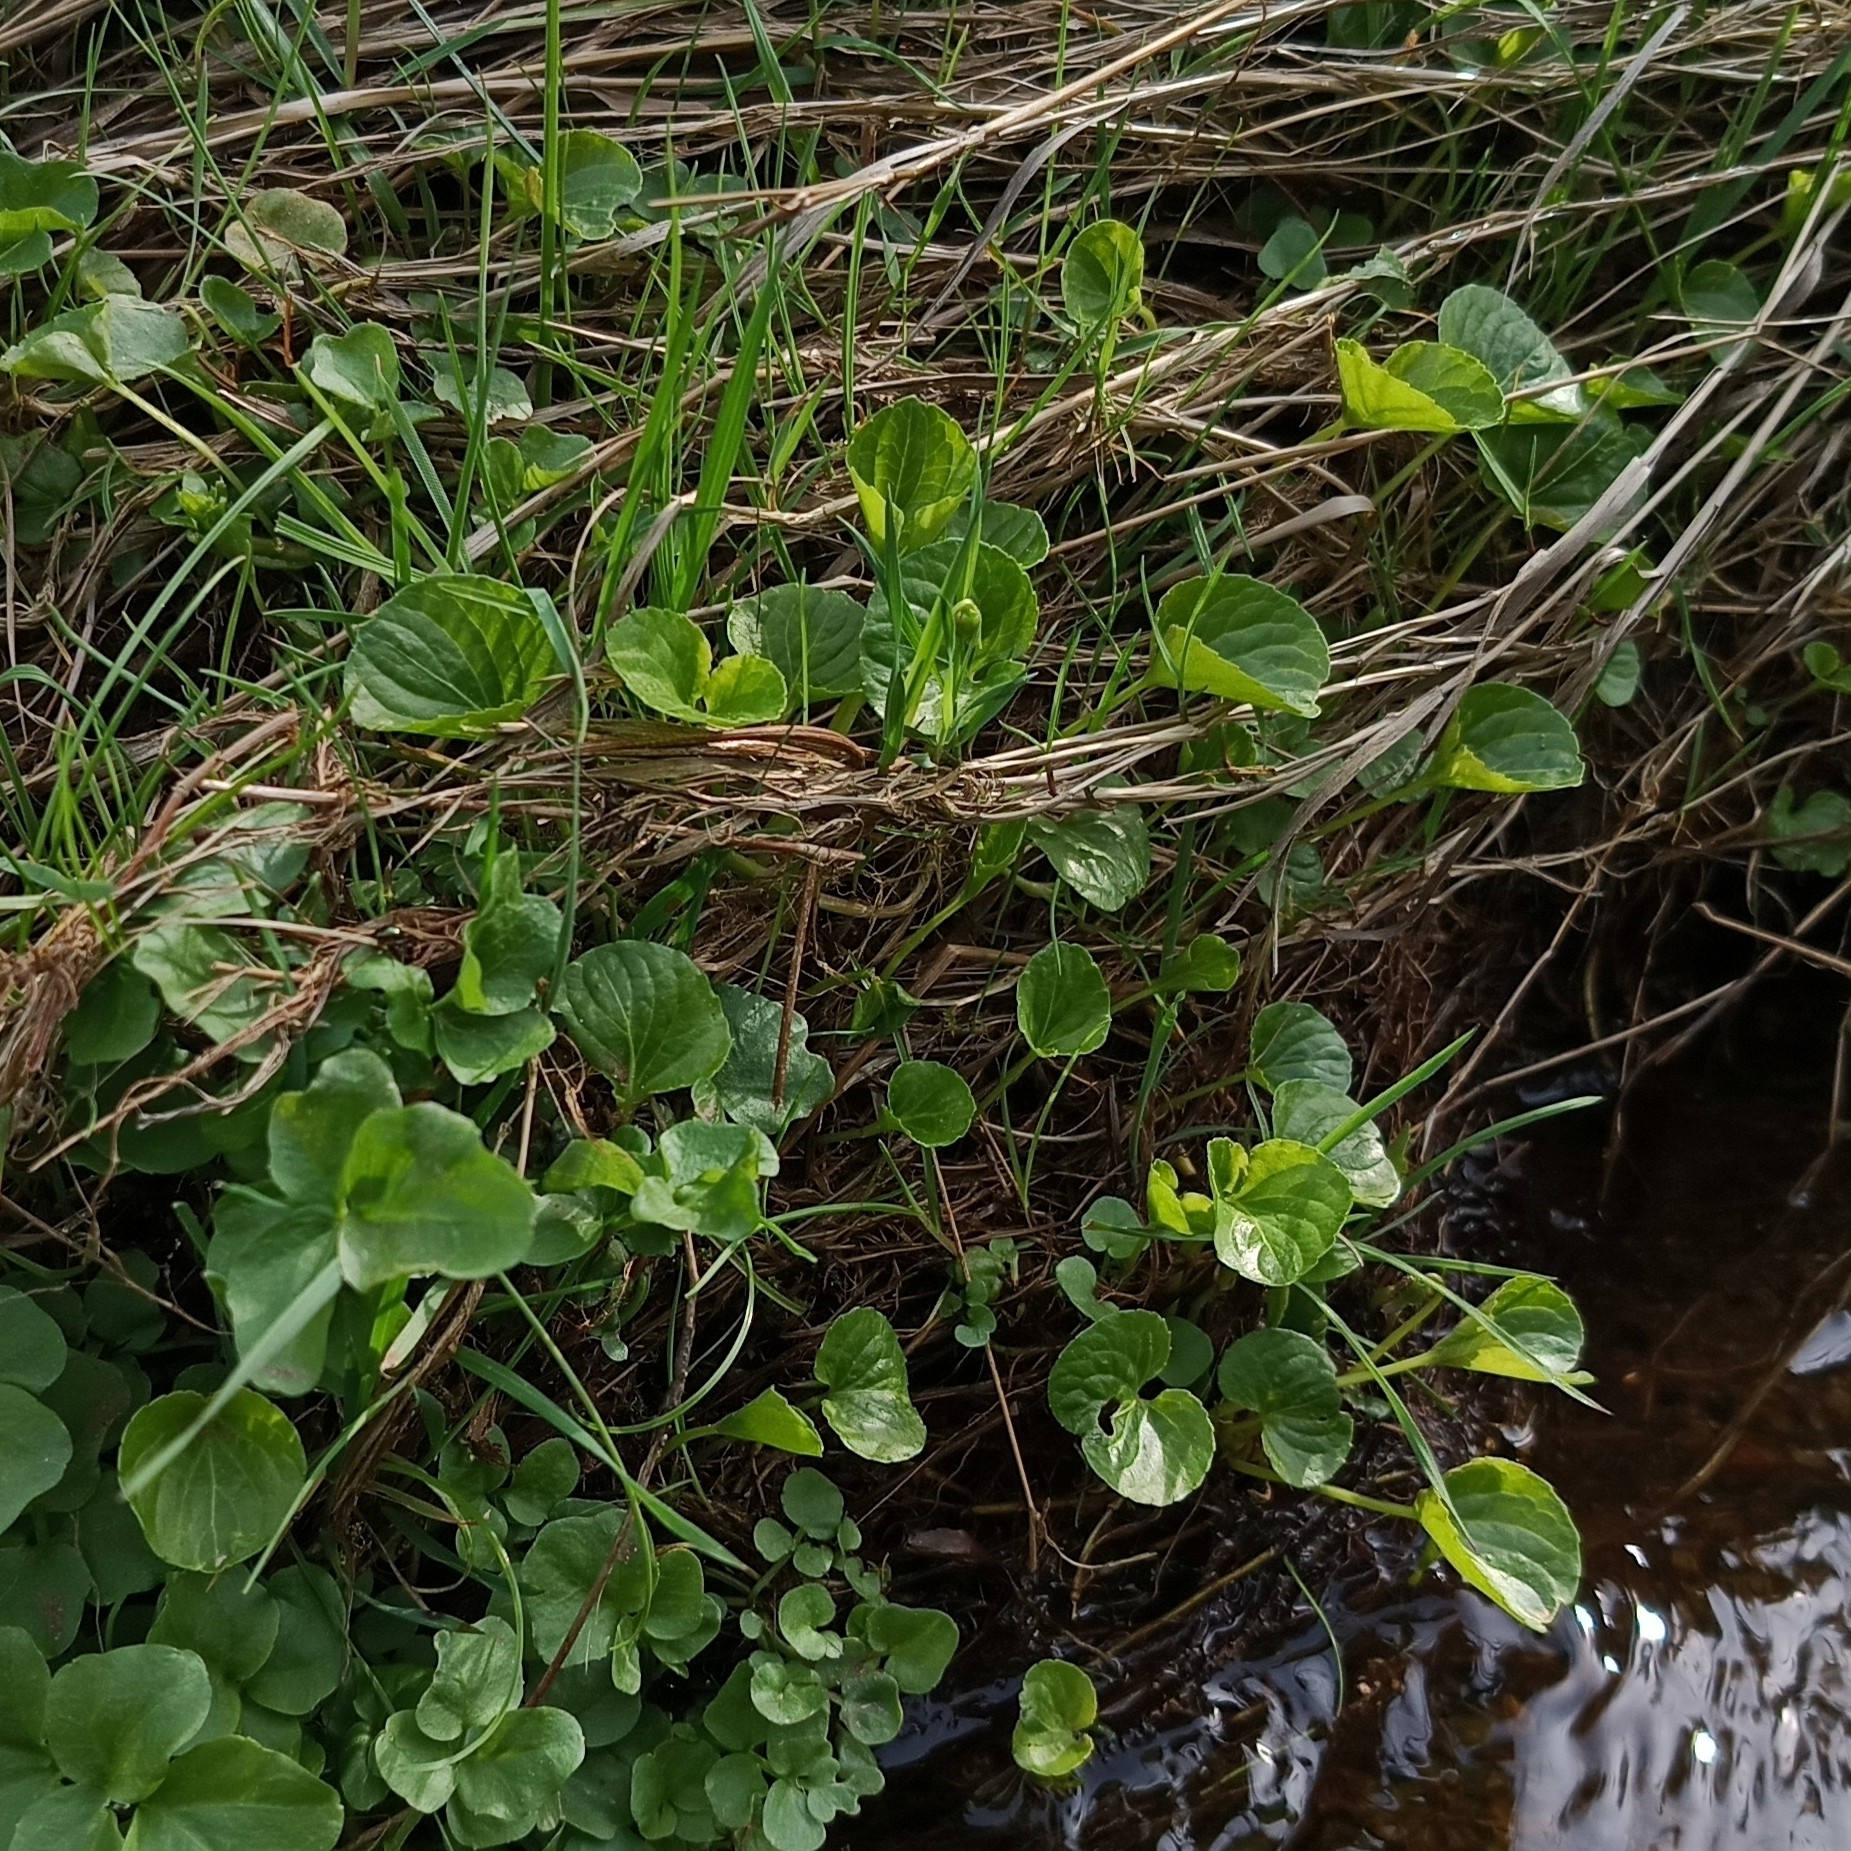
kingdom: Plantae
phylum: Tracheophyta
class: Magnoliopsida
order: Malpighiales
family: Violaceae
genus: Viola
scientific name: Viola palustris
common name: Marsh violet
